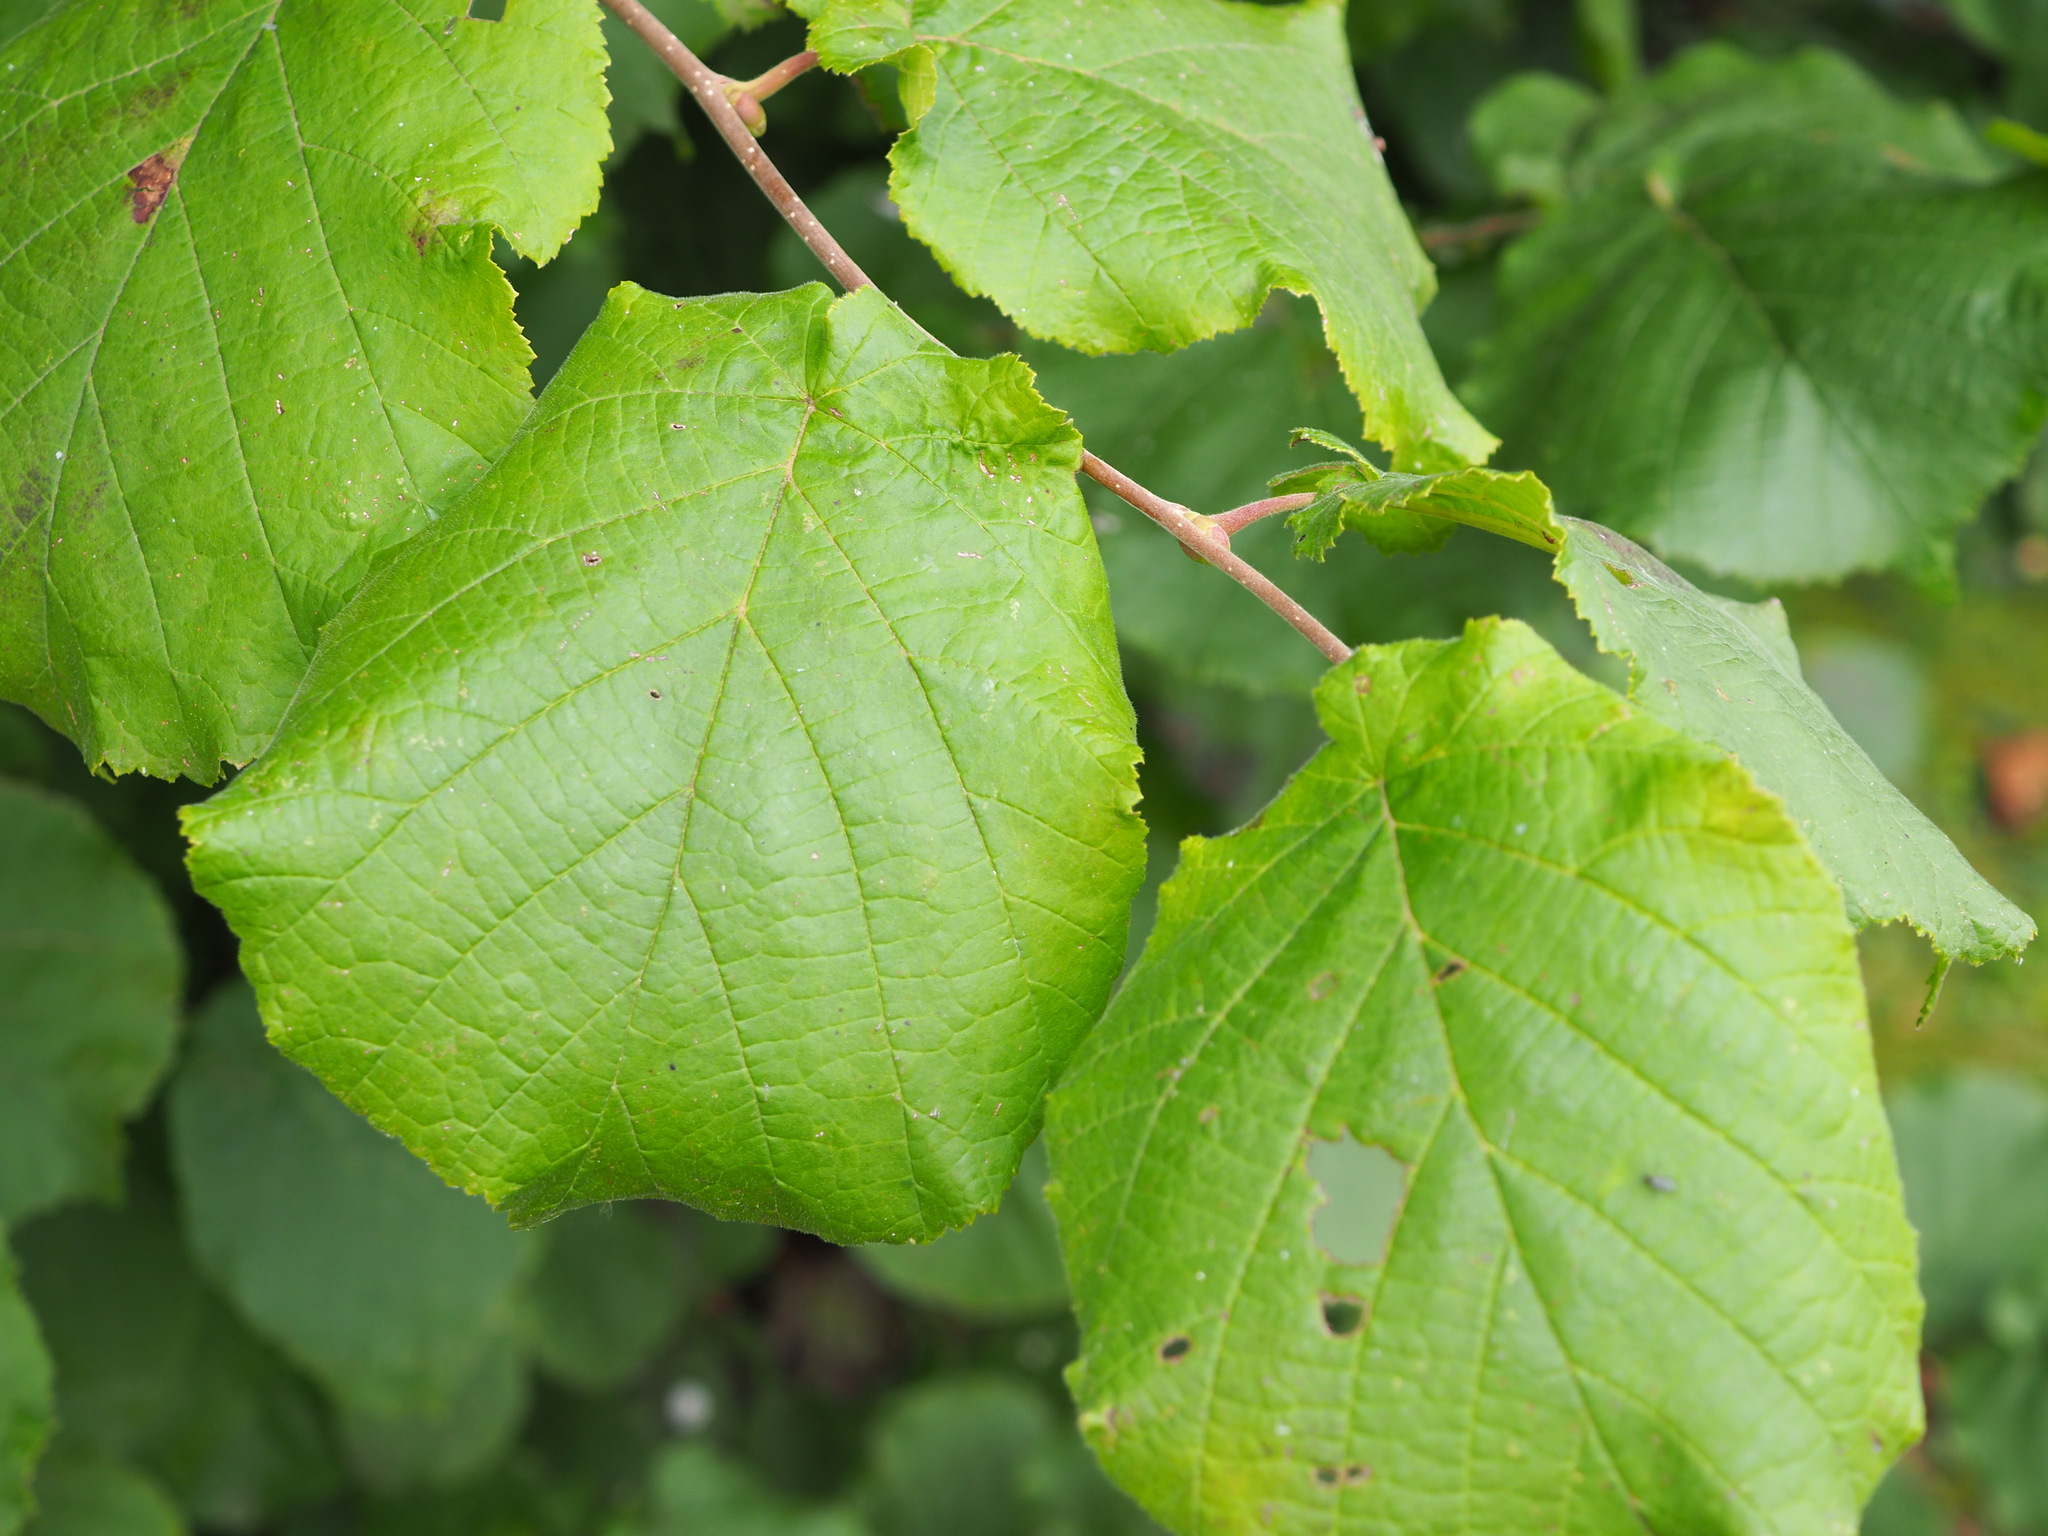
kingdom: Plantae
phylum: Tracheophyta
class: Magnoliopsida
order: Fagales
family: Betulaceae
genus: Corylus
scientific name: Corylus avellana
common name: European hazel
